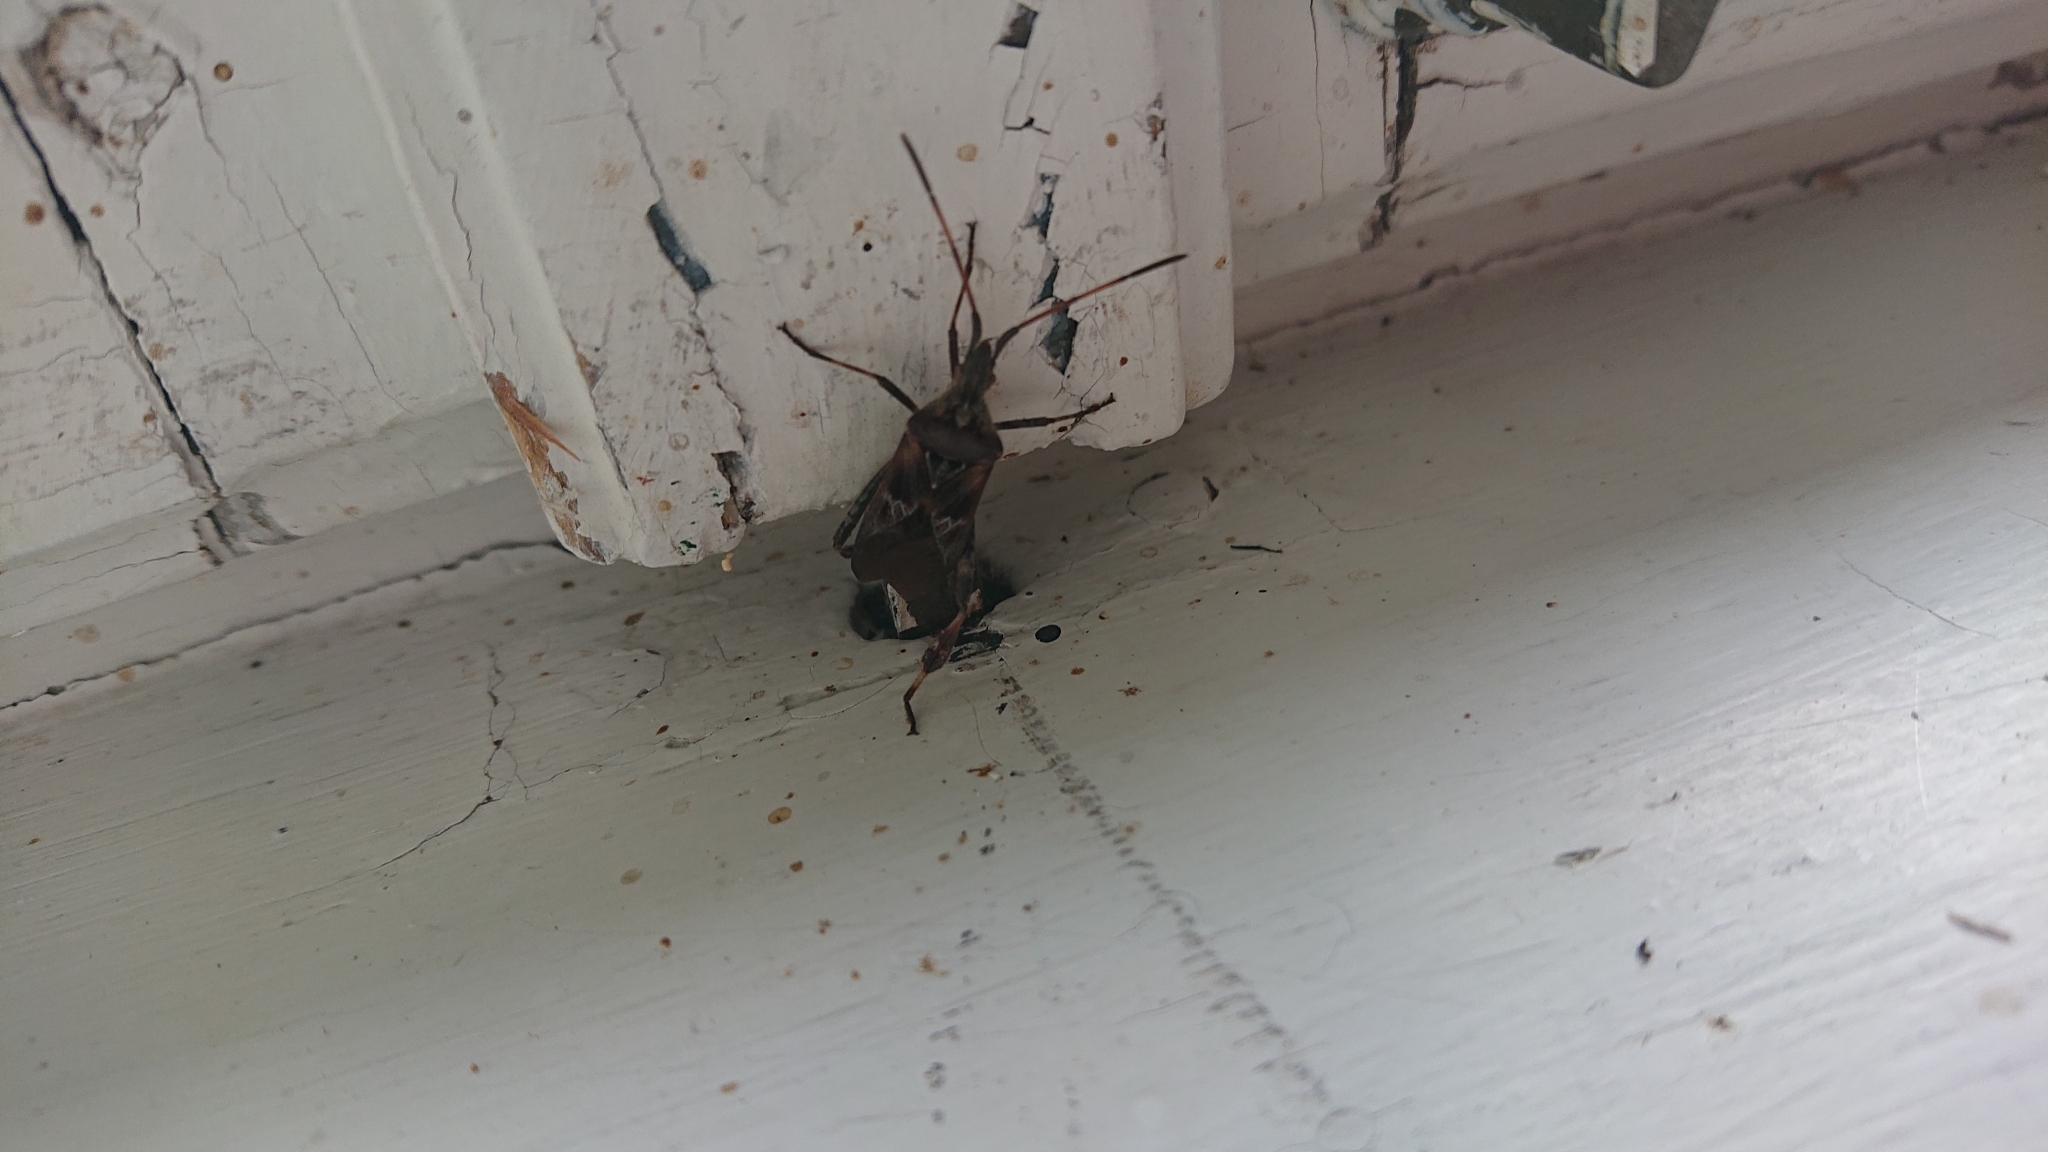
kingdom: Animalia
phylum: Arthropoda
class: Insecta
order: Hemiptera
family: Coreidae
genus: Leptoglossus
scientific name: Leptoglossus occidentalis
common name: Western conifer-seed bug
